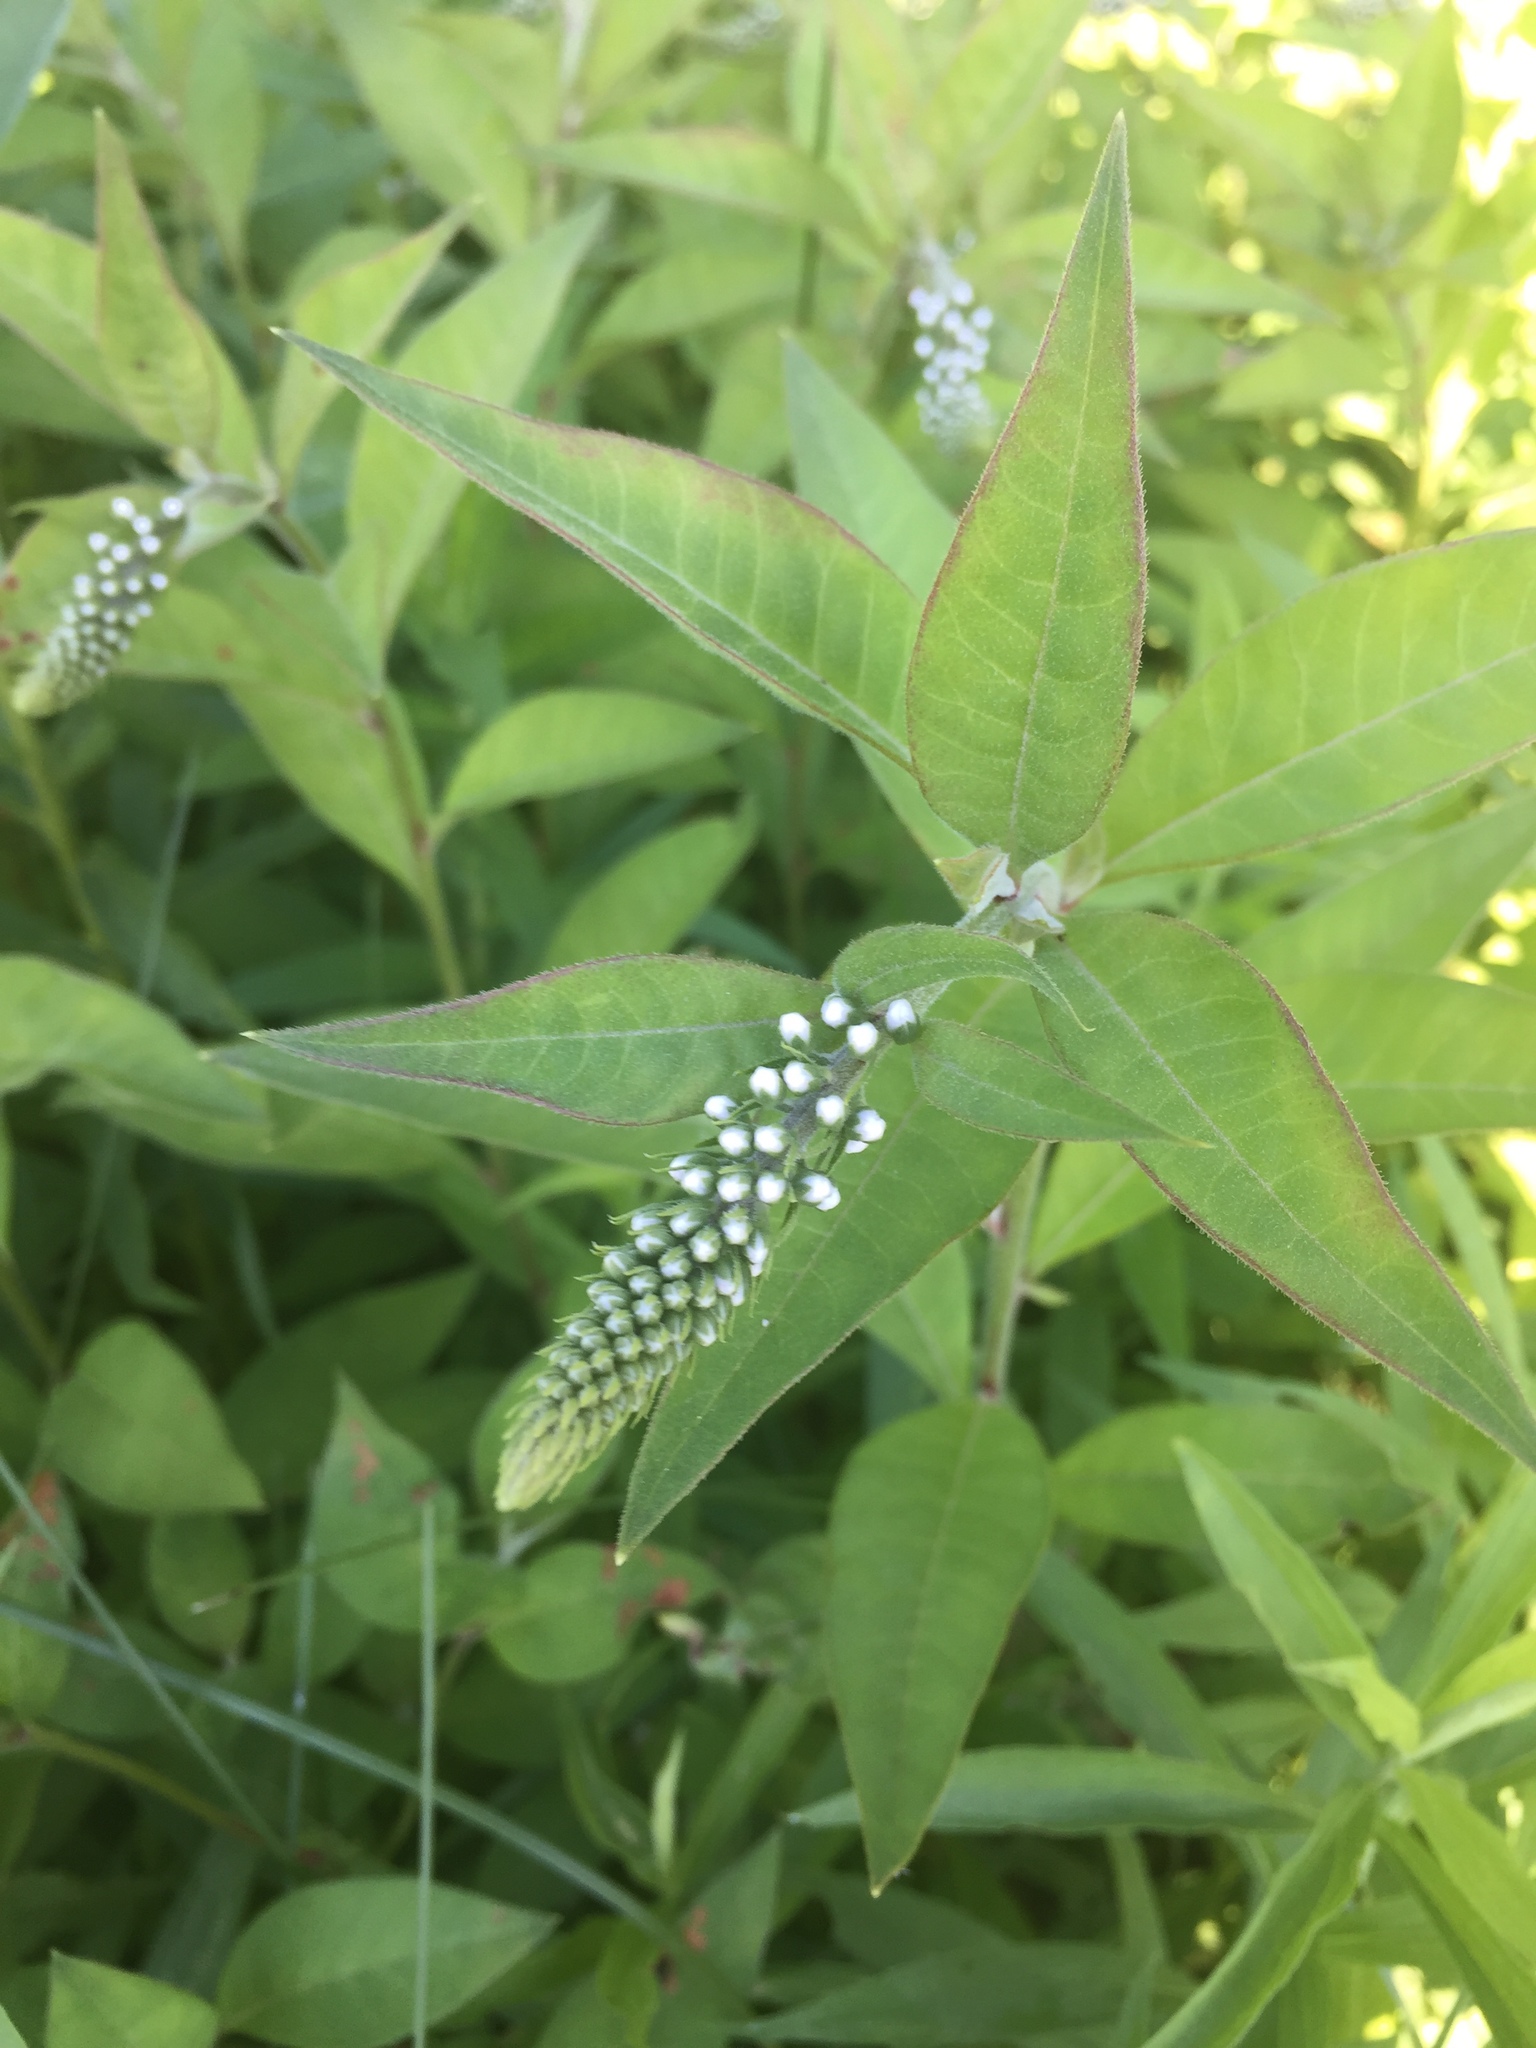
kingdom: Plantae
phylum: Tracheophyta
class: Magnoliopsida
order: Ericales
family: Primulaceae
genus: Lysimachia
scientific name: Lysimachia clethroides
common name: Gooseneck loosestrife
